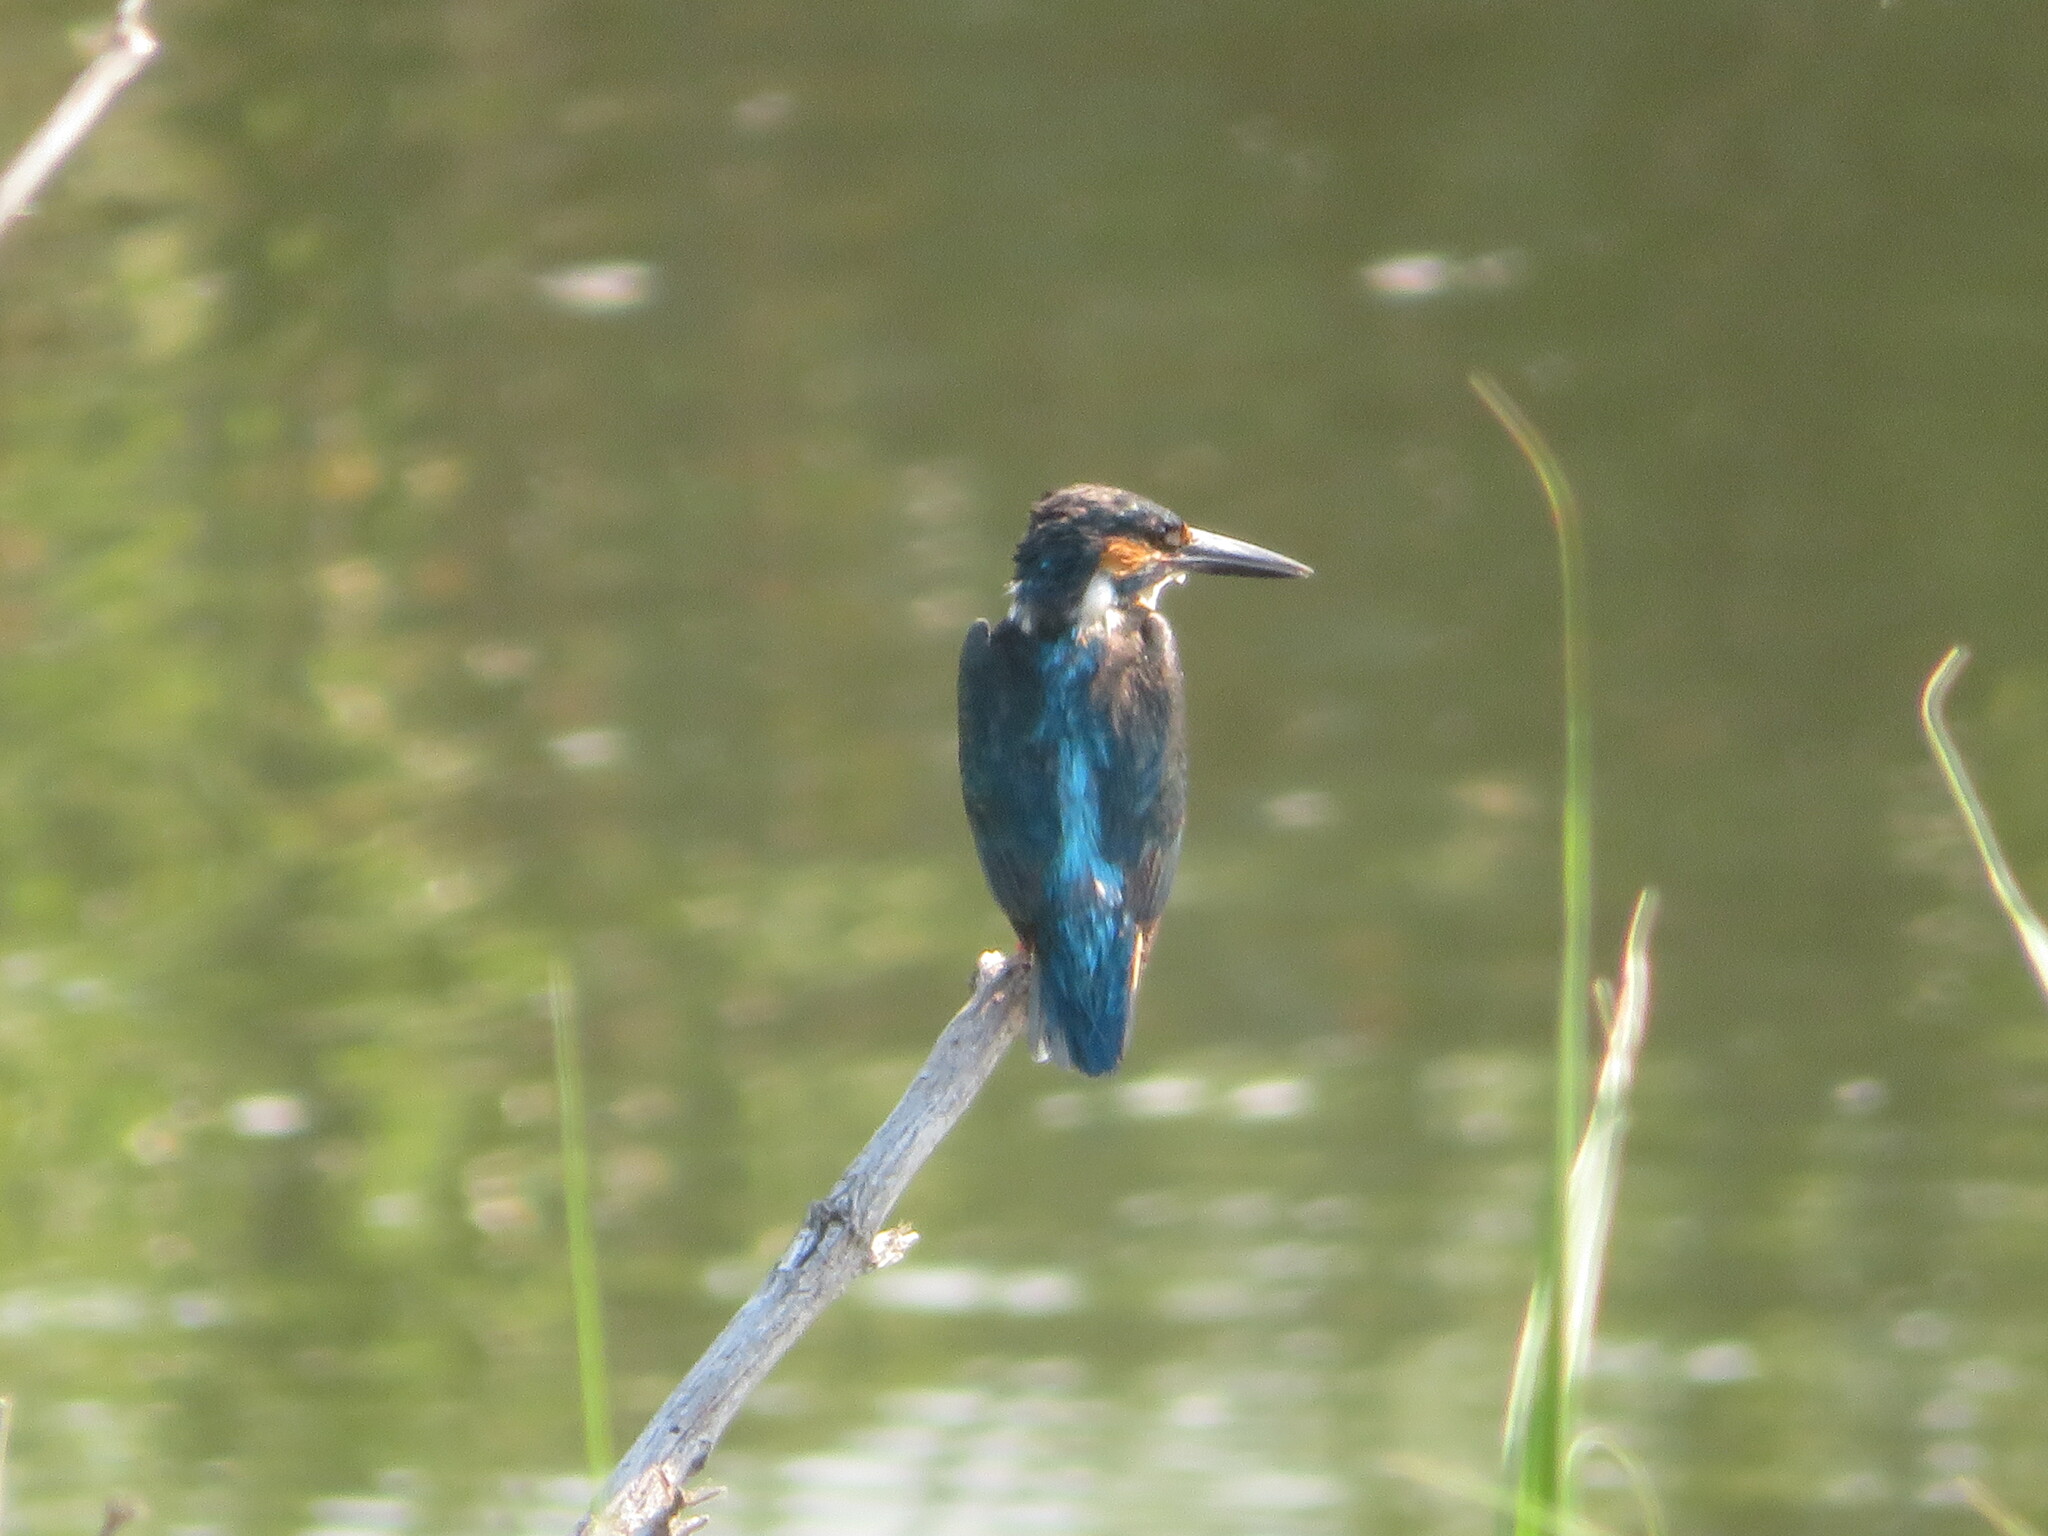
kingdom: Animalia
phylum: Chordata
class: Aves
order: Coraciiformes
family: Alcedinidae
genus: Alcedo
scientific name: Alcedo atthis
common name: Common kingfisher
